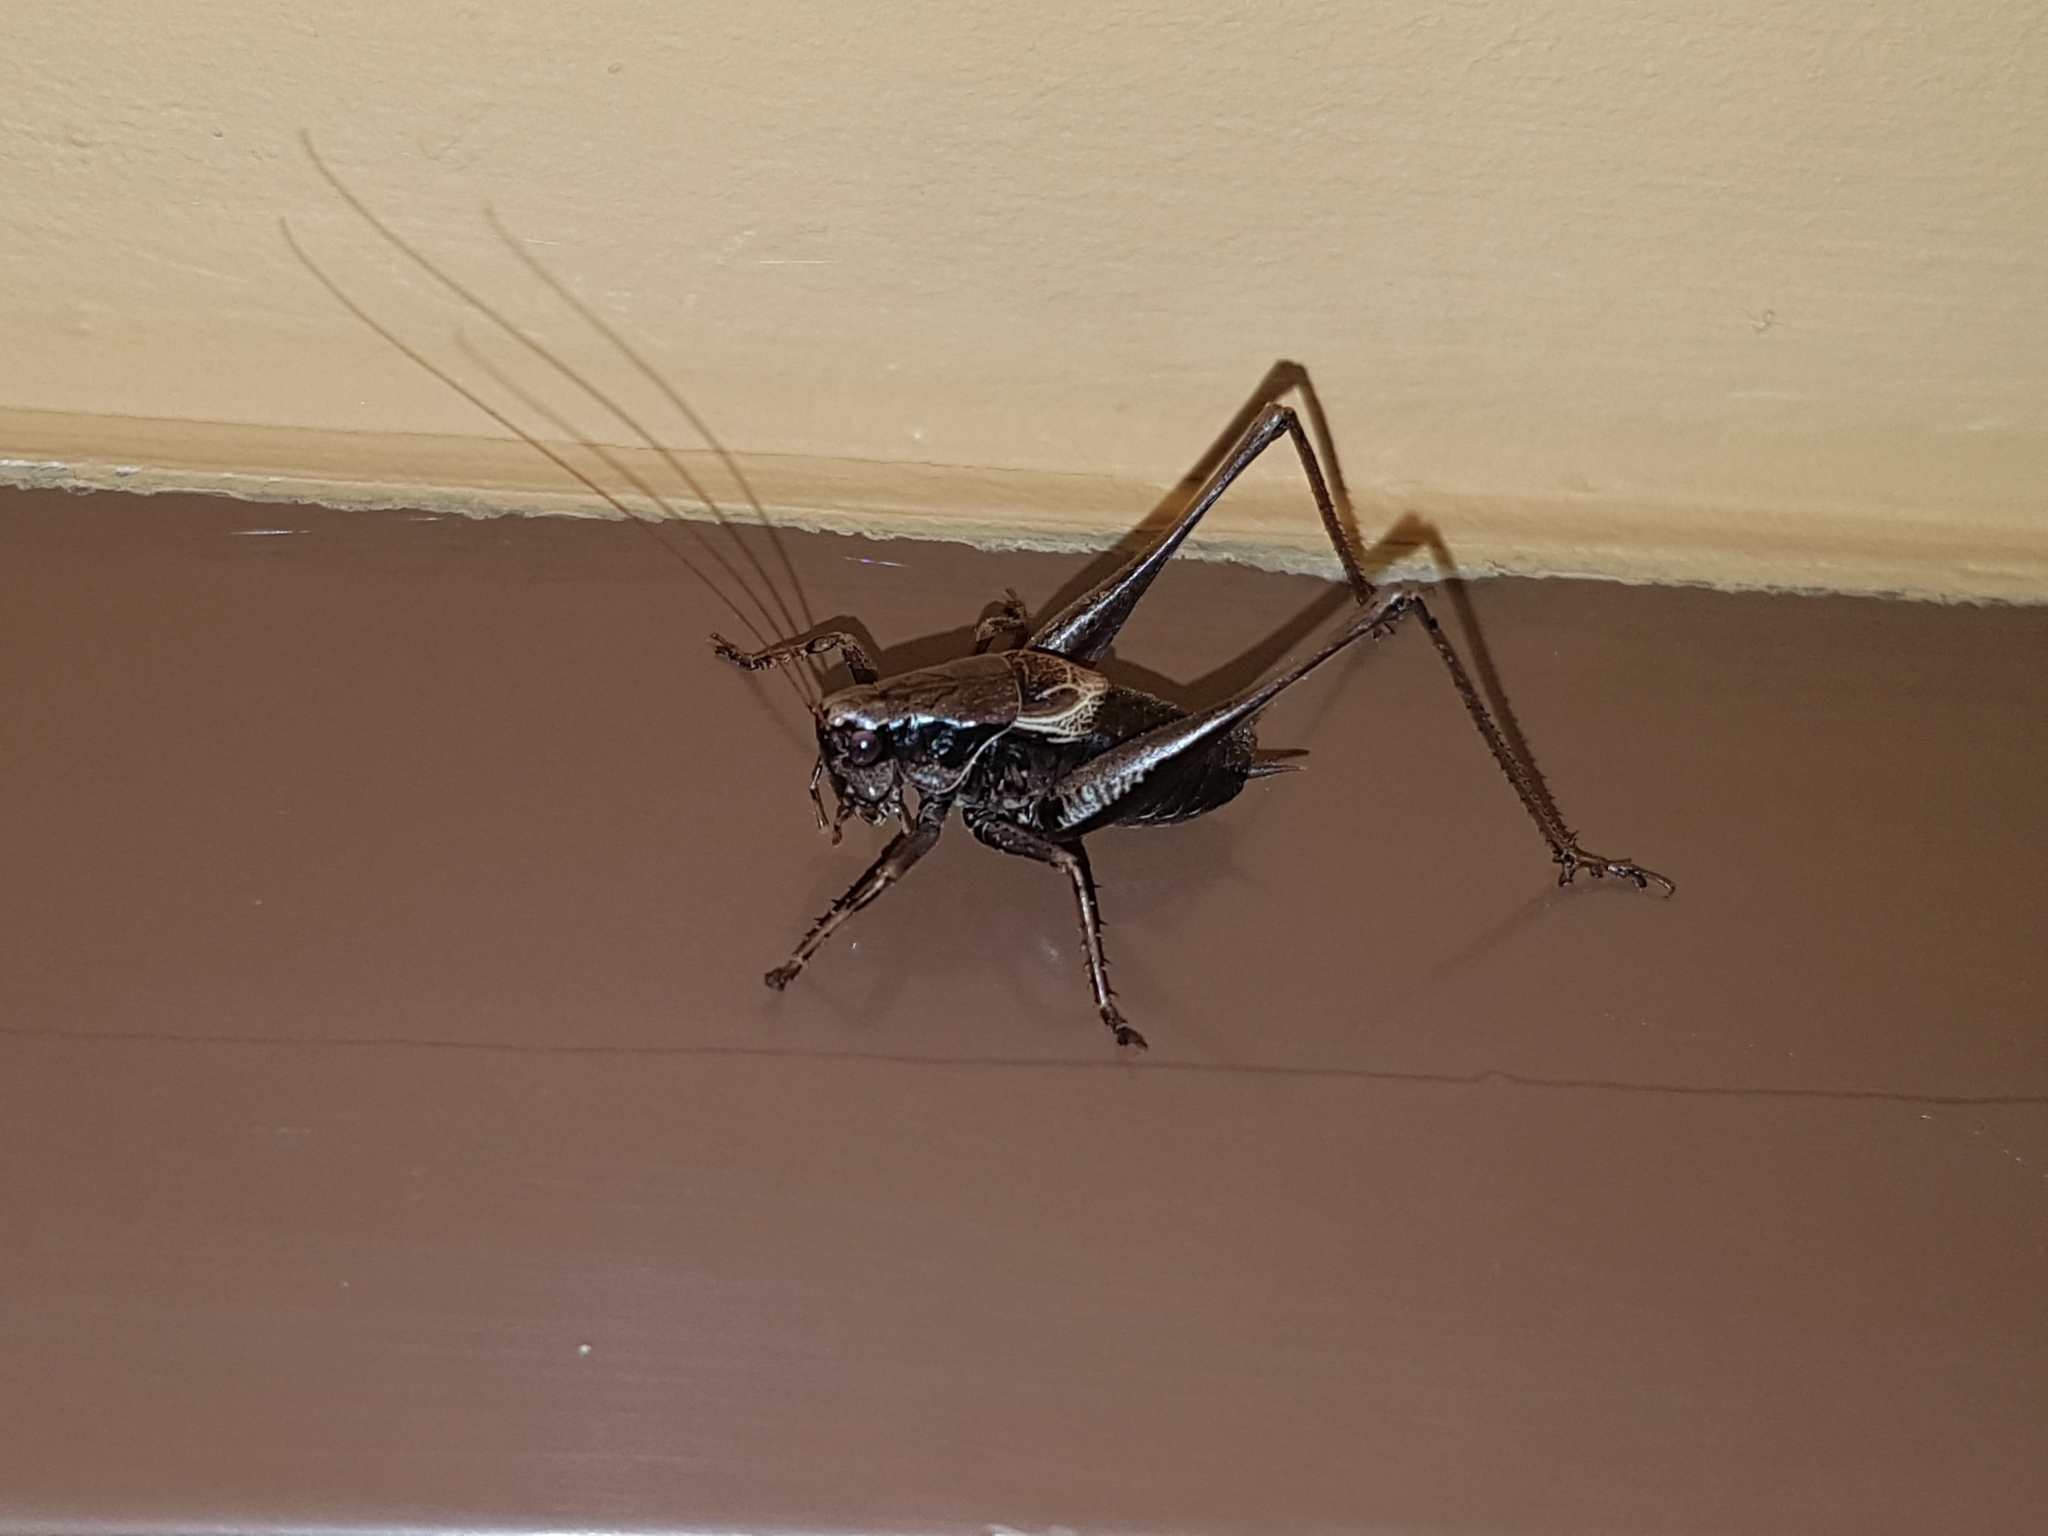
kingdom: Animalia
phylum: Arthropoda
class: Insecta
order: Orthoptera
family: Tettigoniidae
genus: Pholidoptera
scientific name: Pholidoptera griseoaptera
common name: Dark bush-cricket
